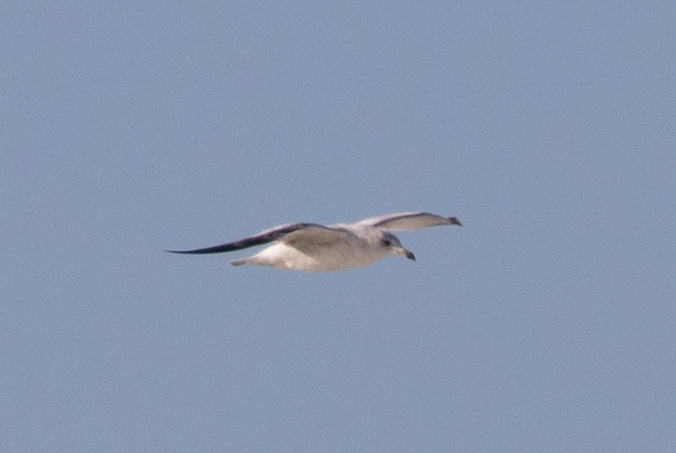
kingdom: Animalia
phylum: Chordata
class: Aves
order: Charadriiformes
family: Laridae
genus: Larus
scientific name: Larus delawarensis
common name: Ring-billed gull
